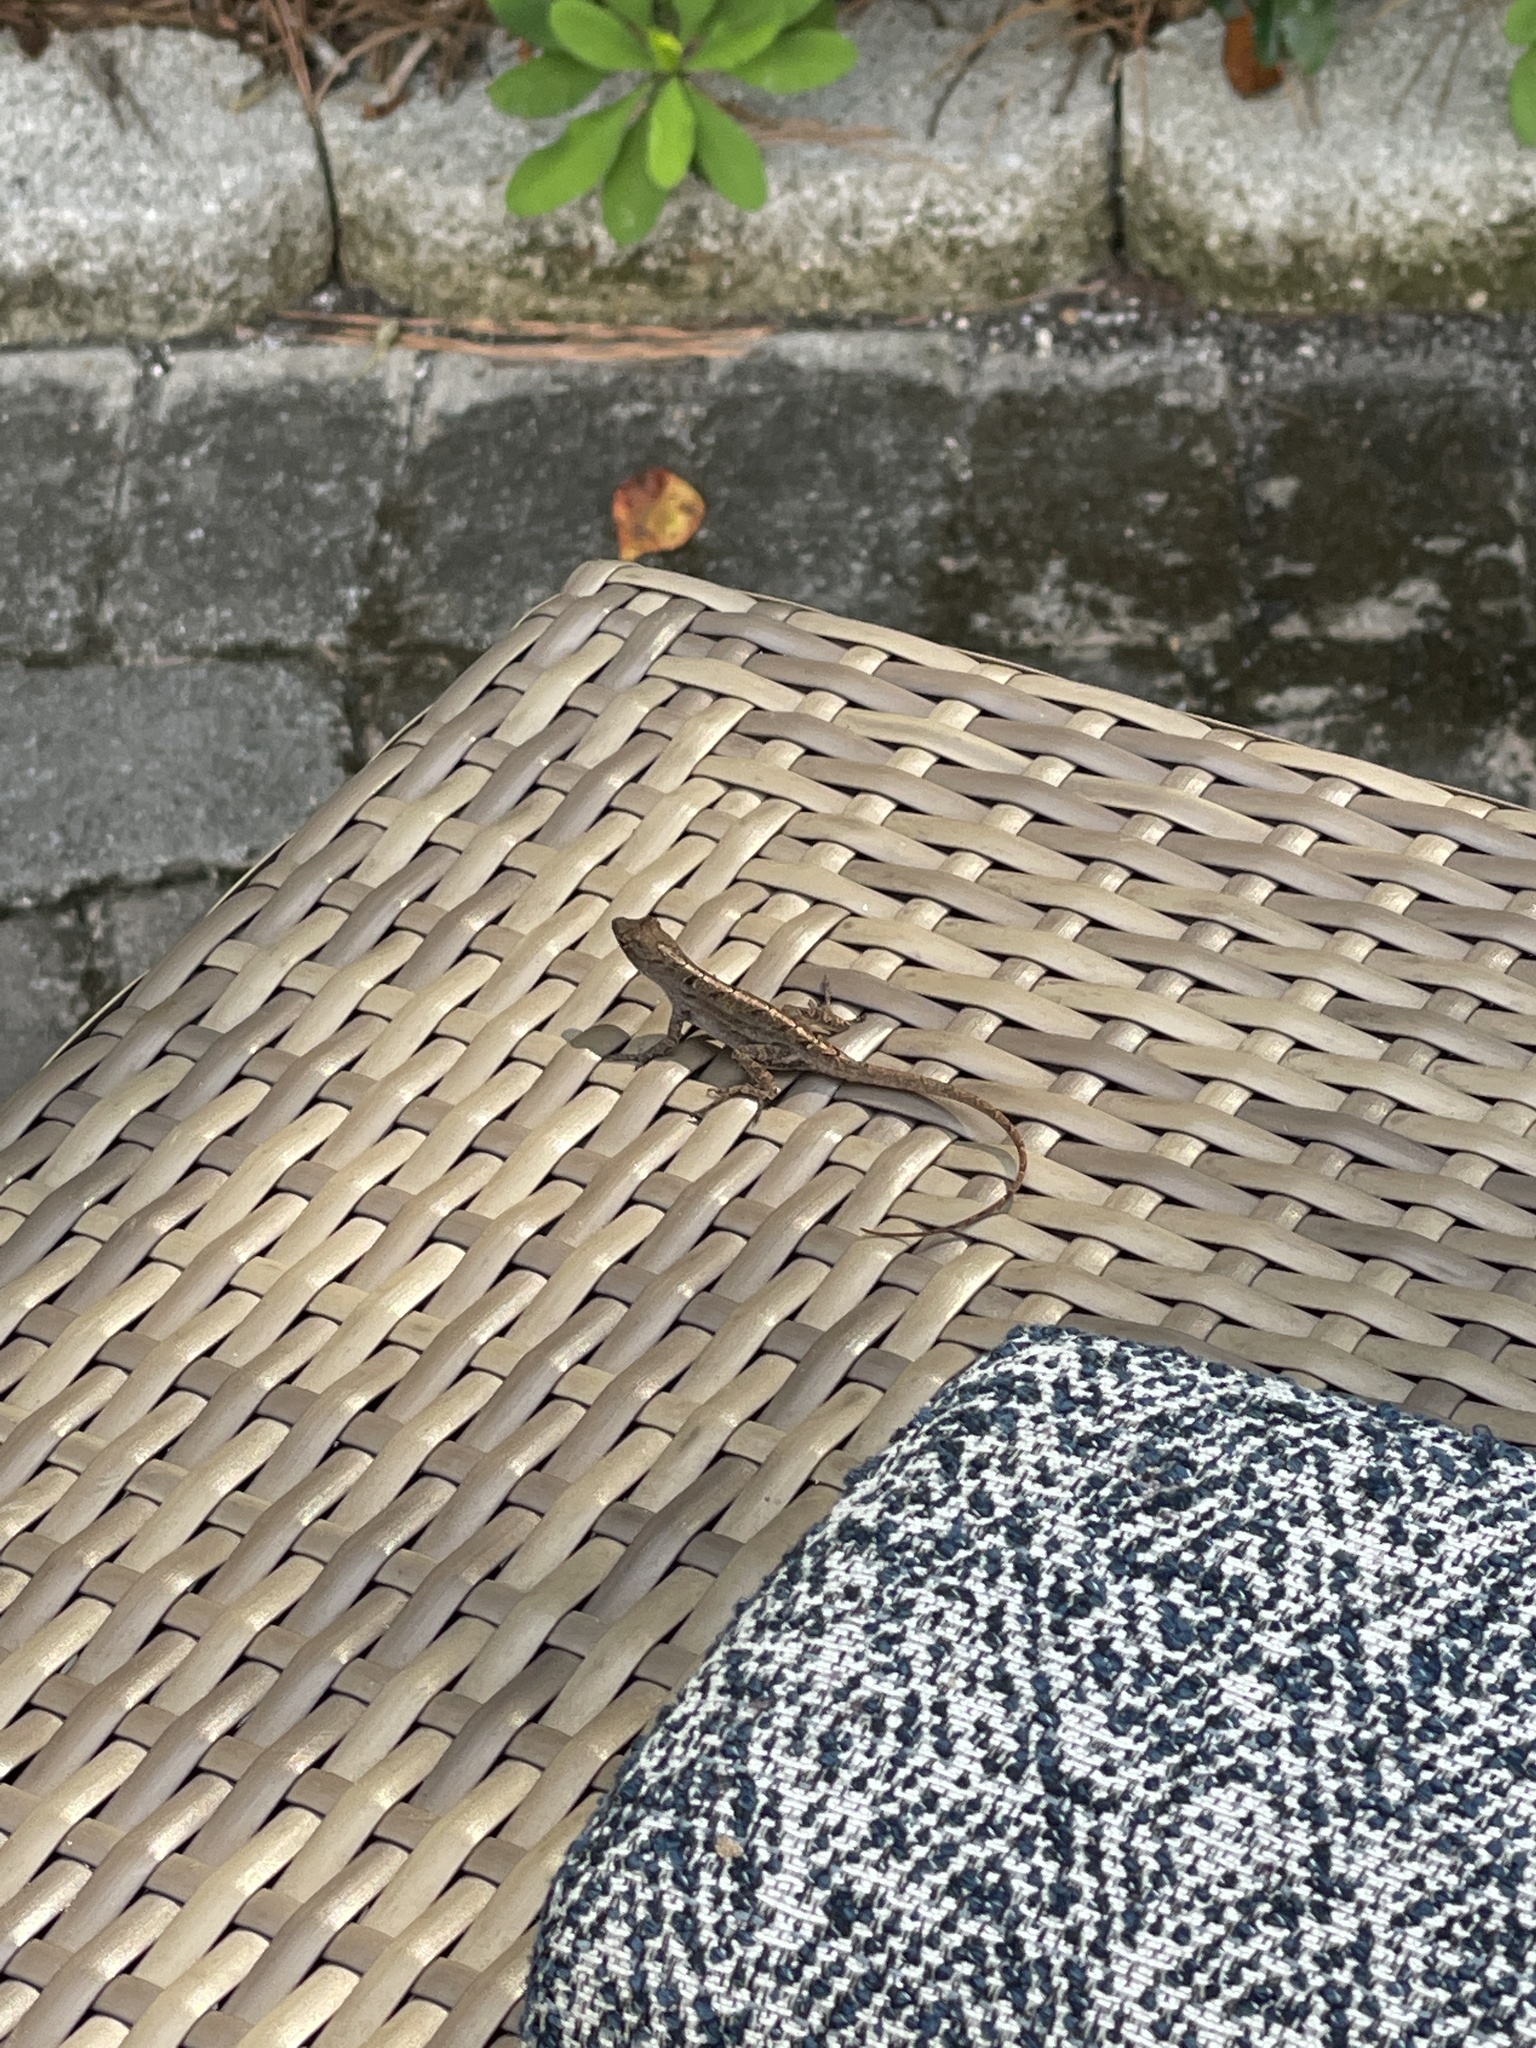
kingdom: Animalia
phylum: Chordata
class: Squamata
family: Dactyloidae
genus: Anolis
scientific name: Anolis sagrei
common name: Brown anole
